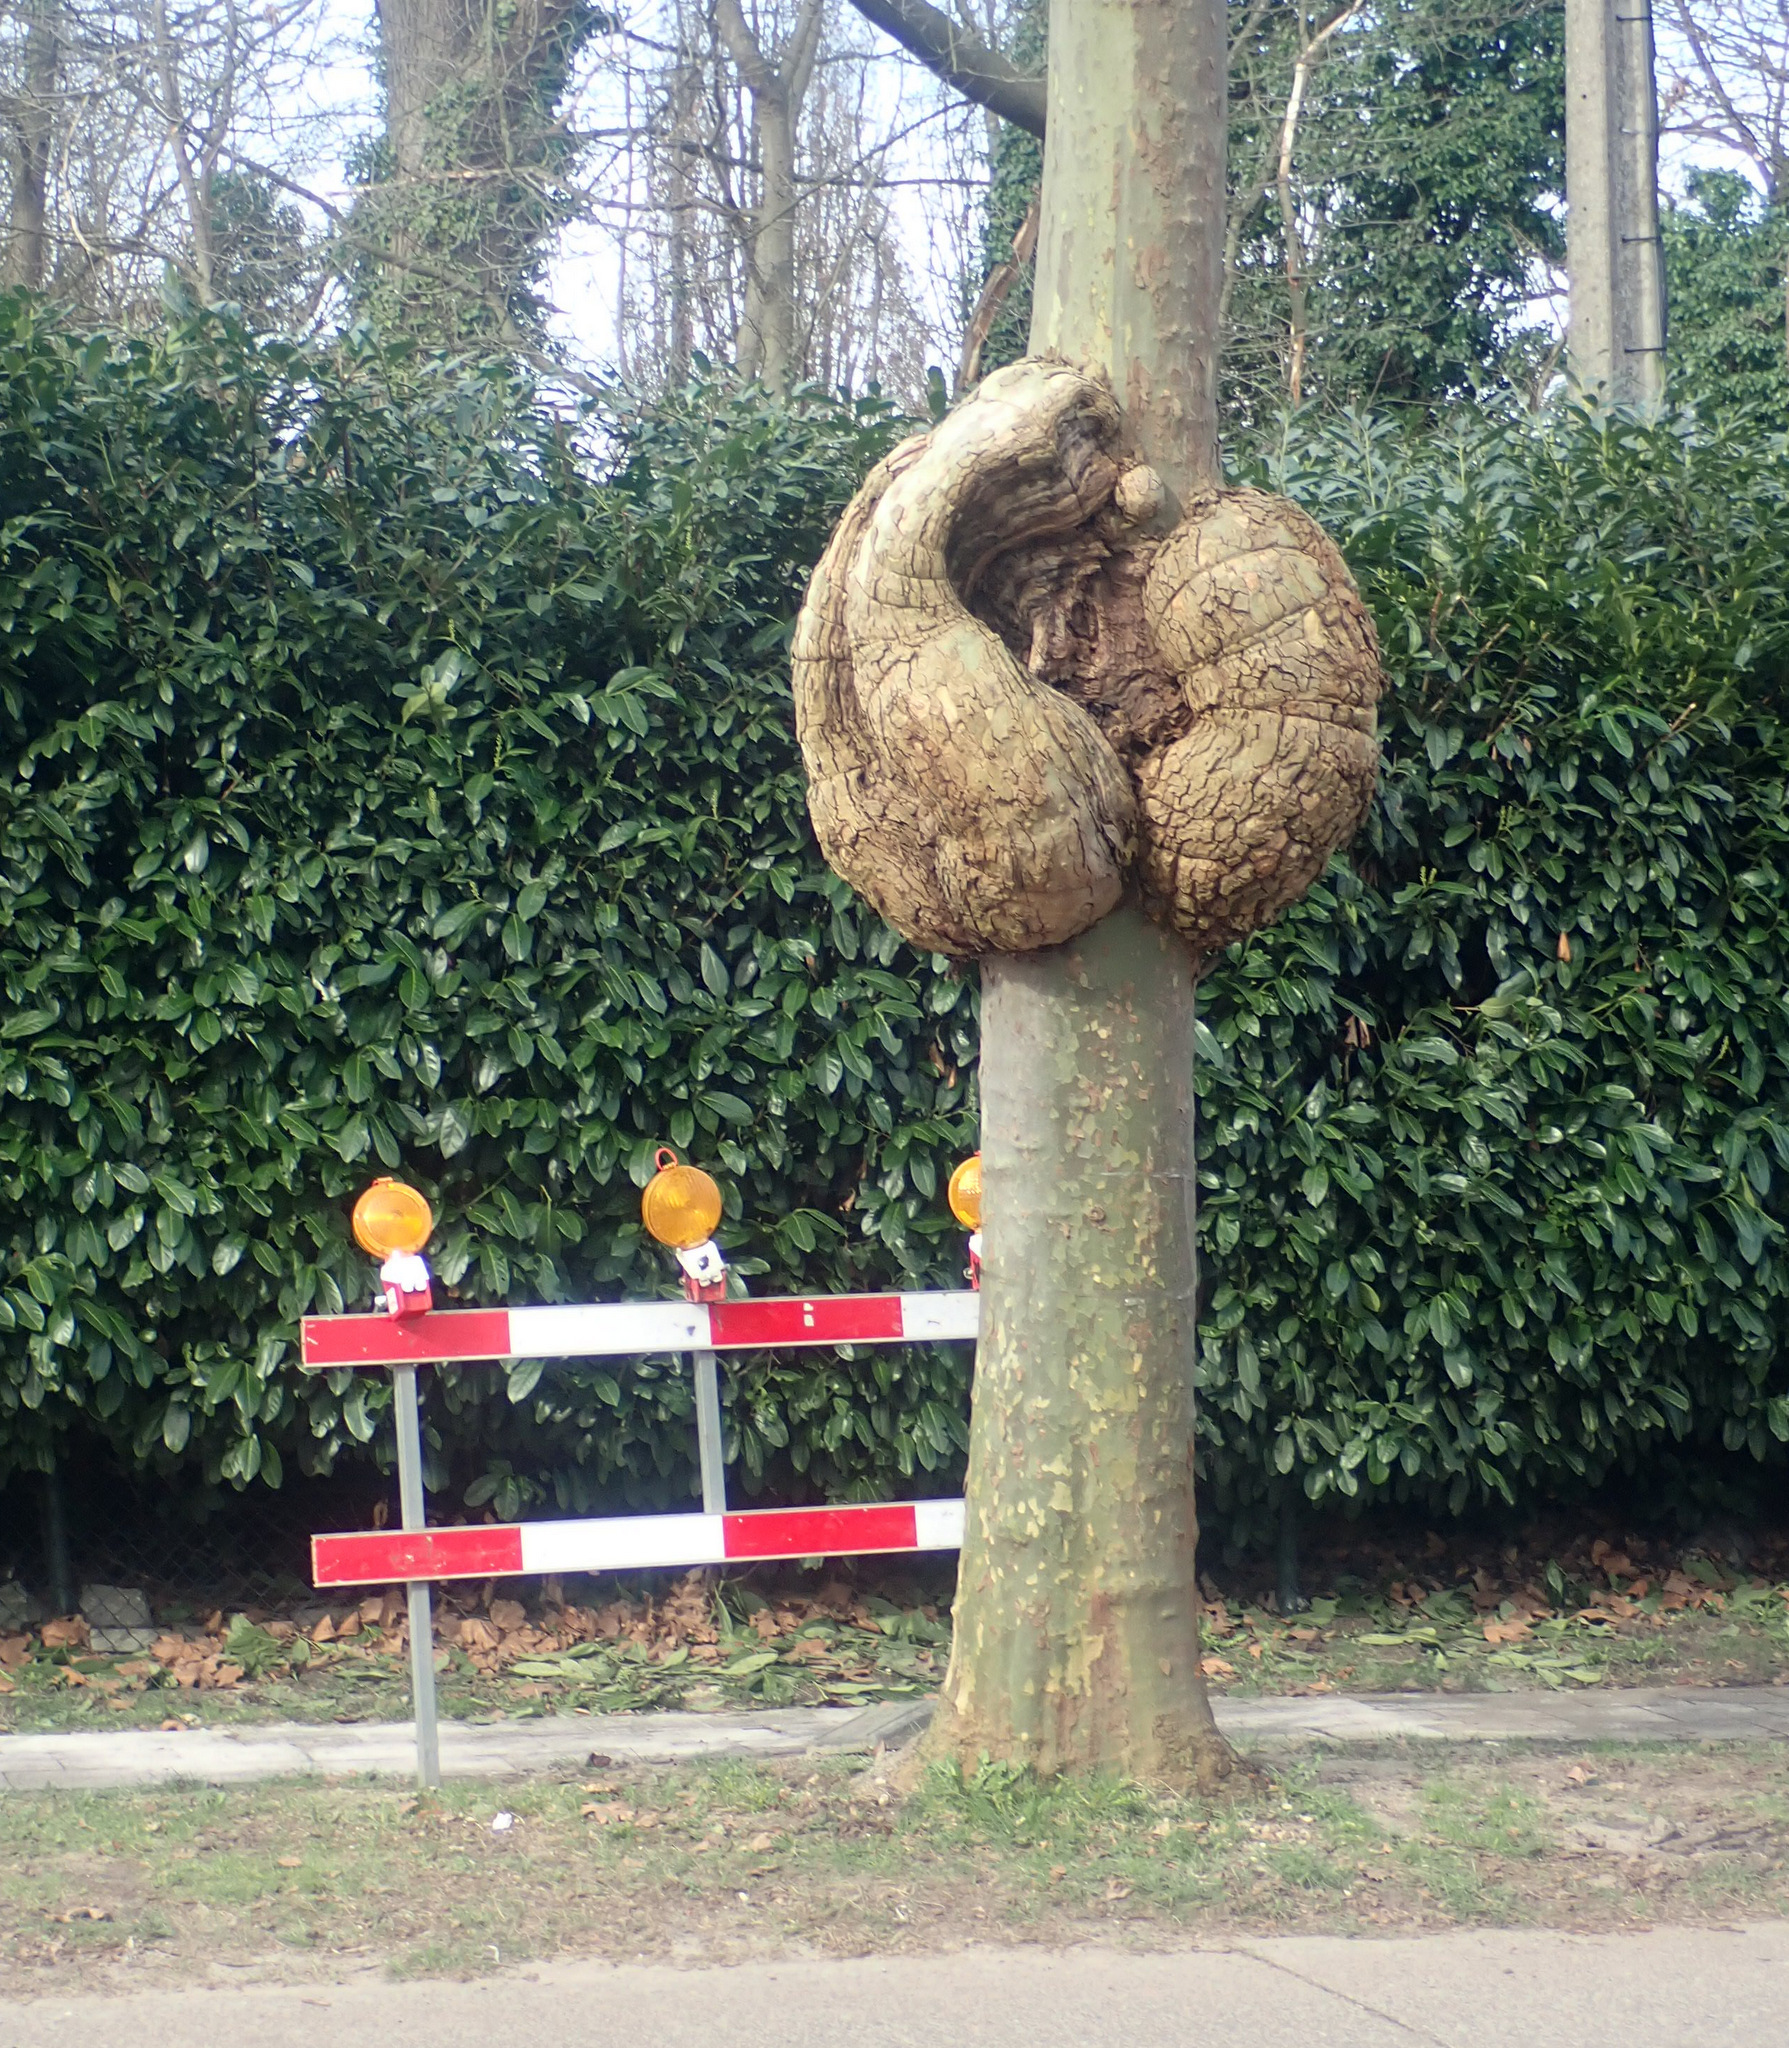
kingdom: Bacteria
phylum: Proteobacteria
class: Alphaproteobacteria
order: Rhizobiales
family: Rhizobiaceae
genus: Rhizobium
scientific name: Rhizobium Agrobacterium radiobacter
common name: Bacterial crown gall
